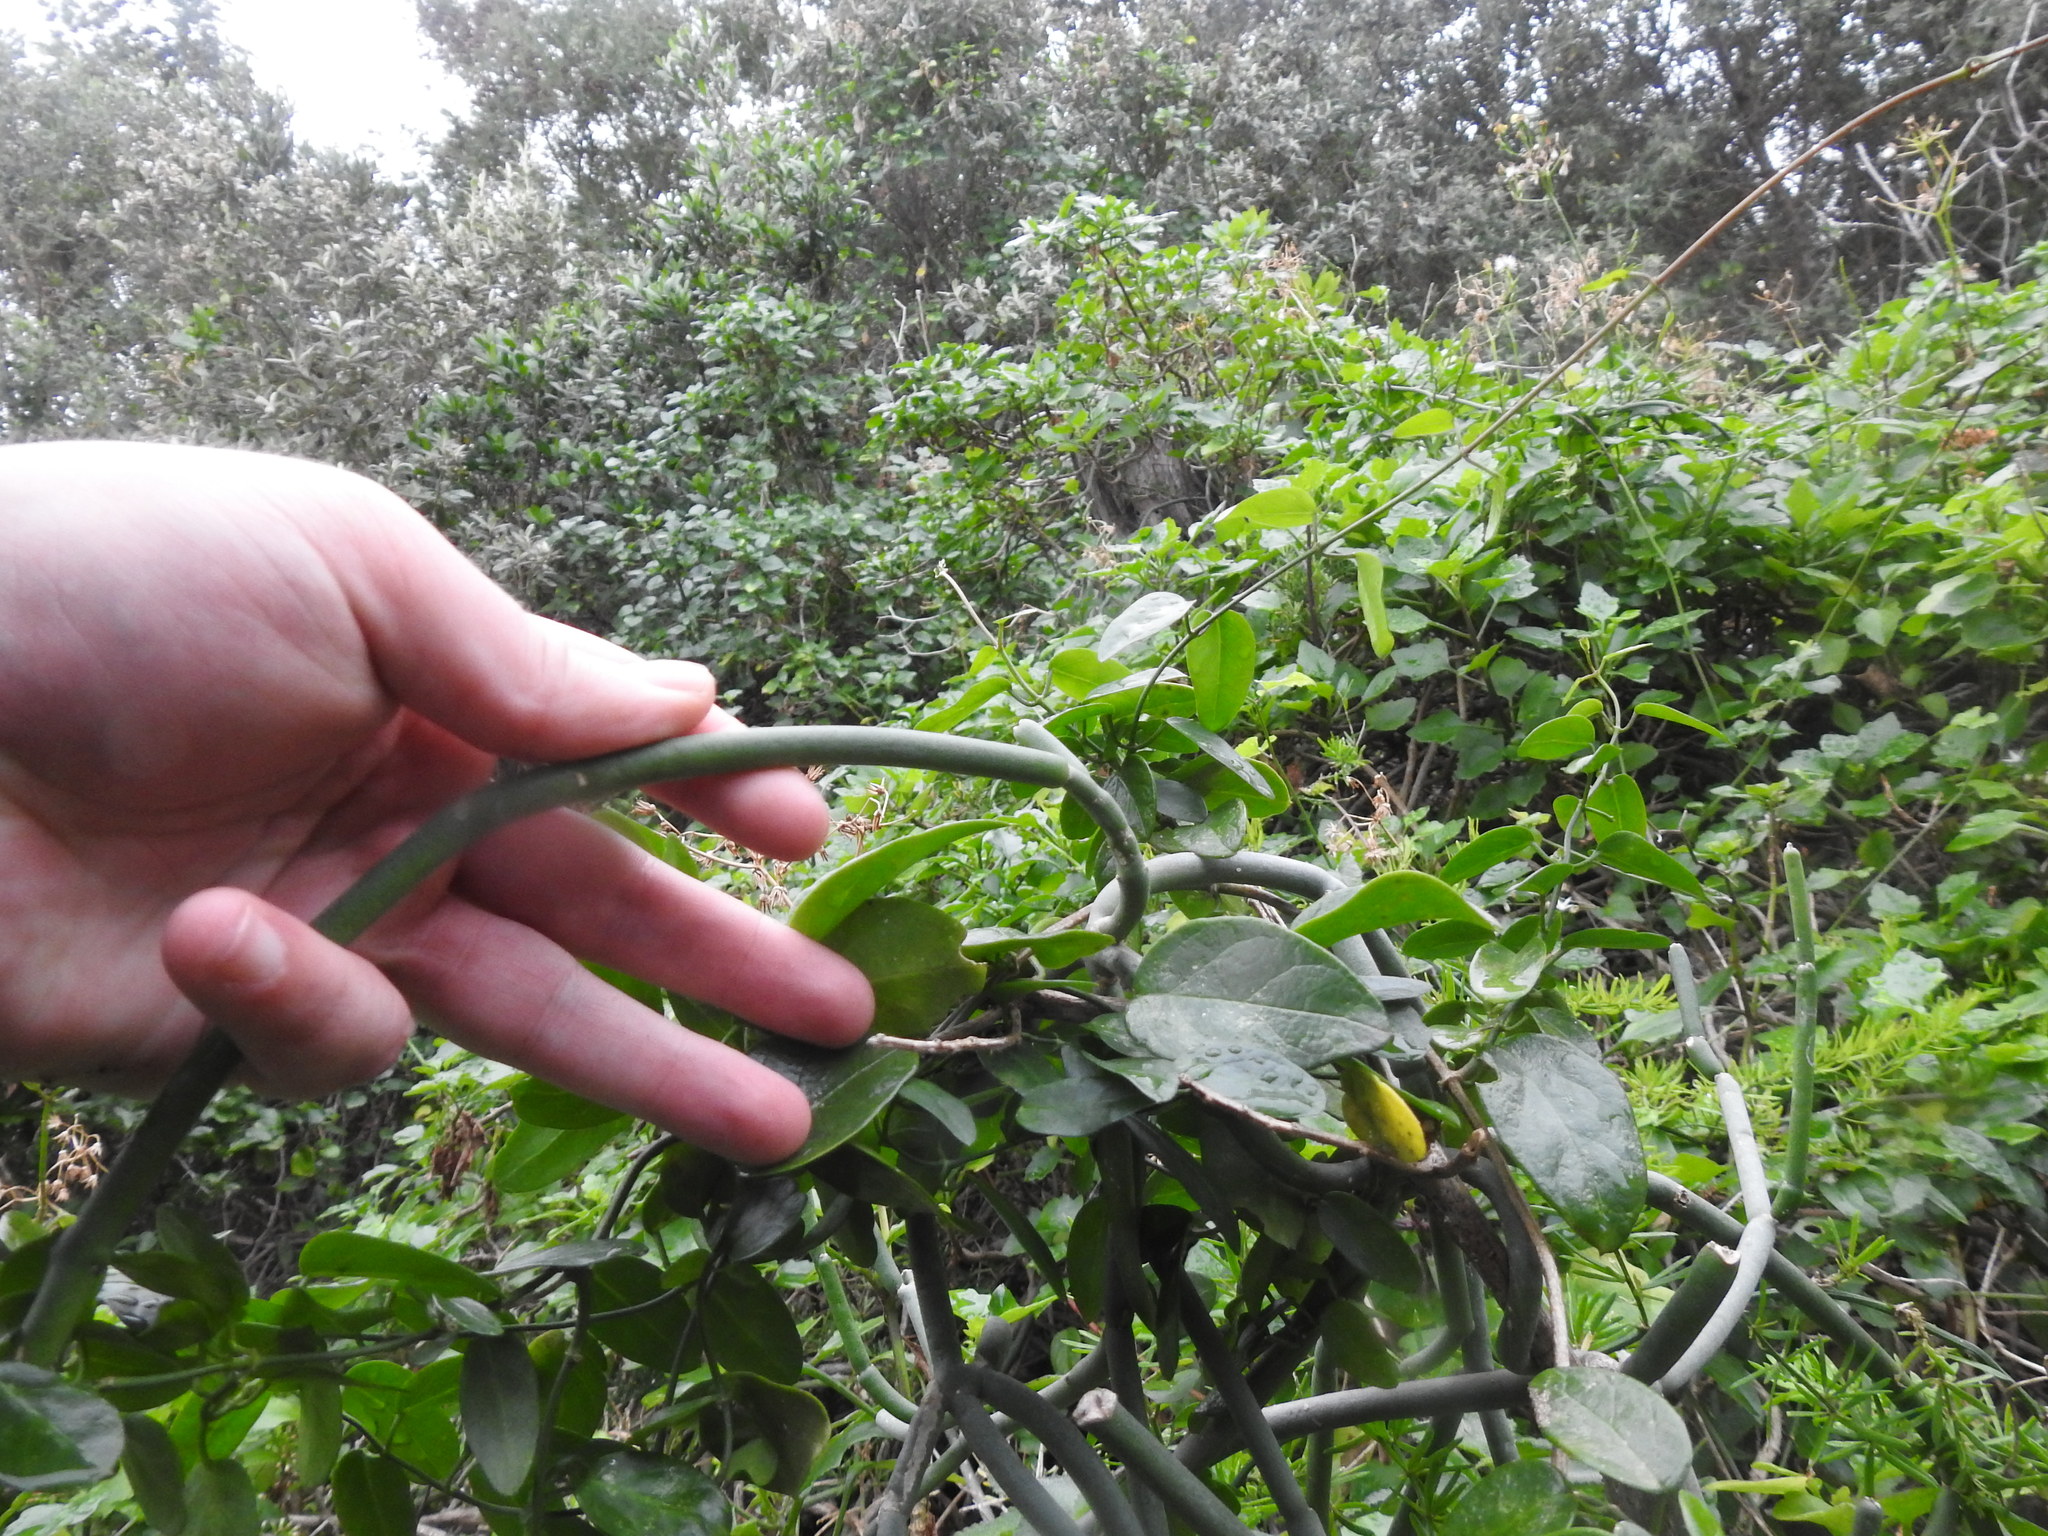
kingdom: Plantae
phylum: Tracheophyta
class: Magnoliopsida
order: Gentianales
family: Apocynaceae
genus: Cynanchum
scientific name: Cynanchum viminale
